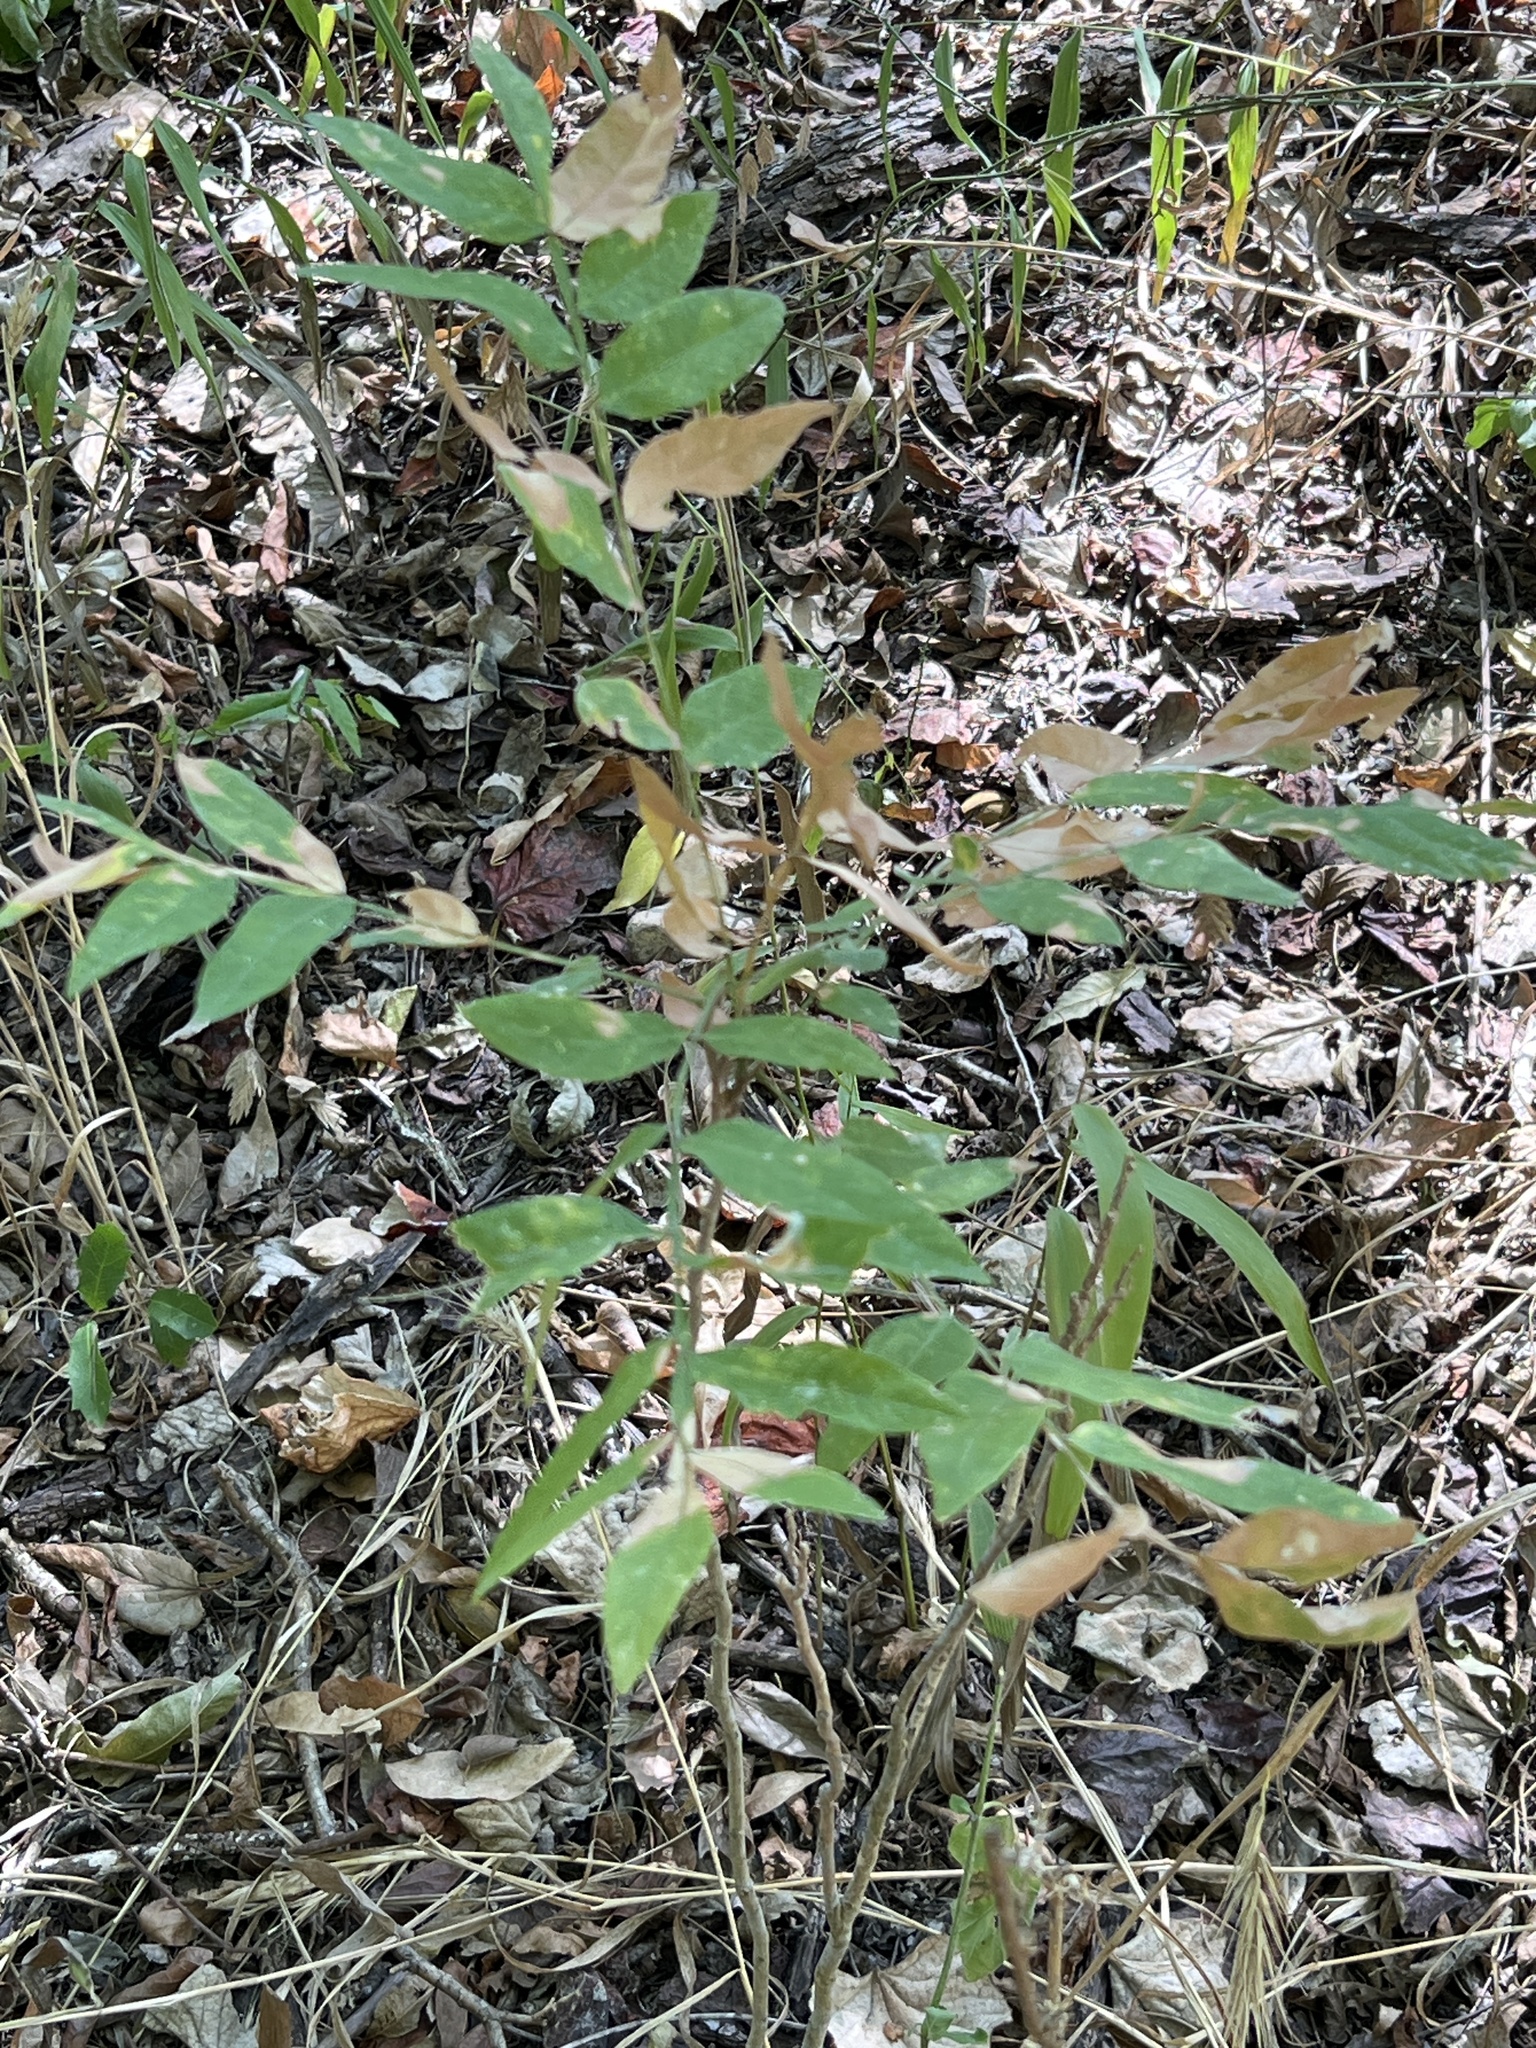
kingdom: Plantae
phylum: Tracheophyta
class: Magnoliopsida
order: Sapindales
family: Sapindaceae
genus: Sapindus
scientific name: Sapindus drummondii
